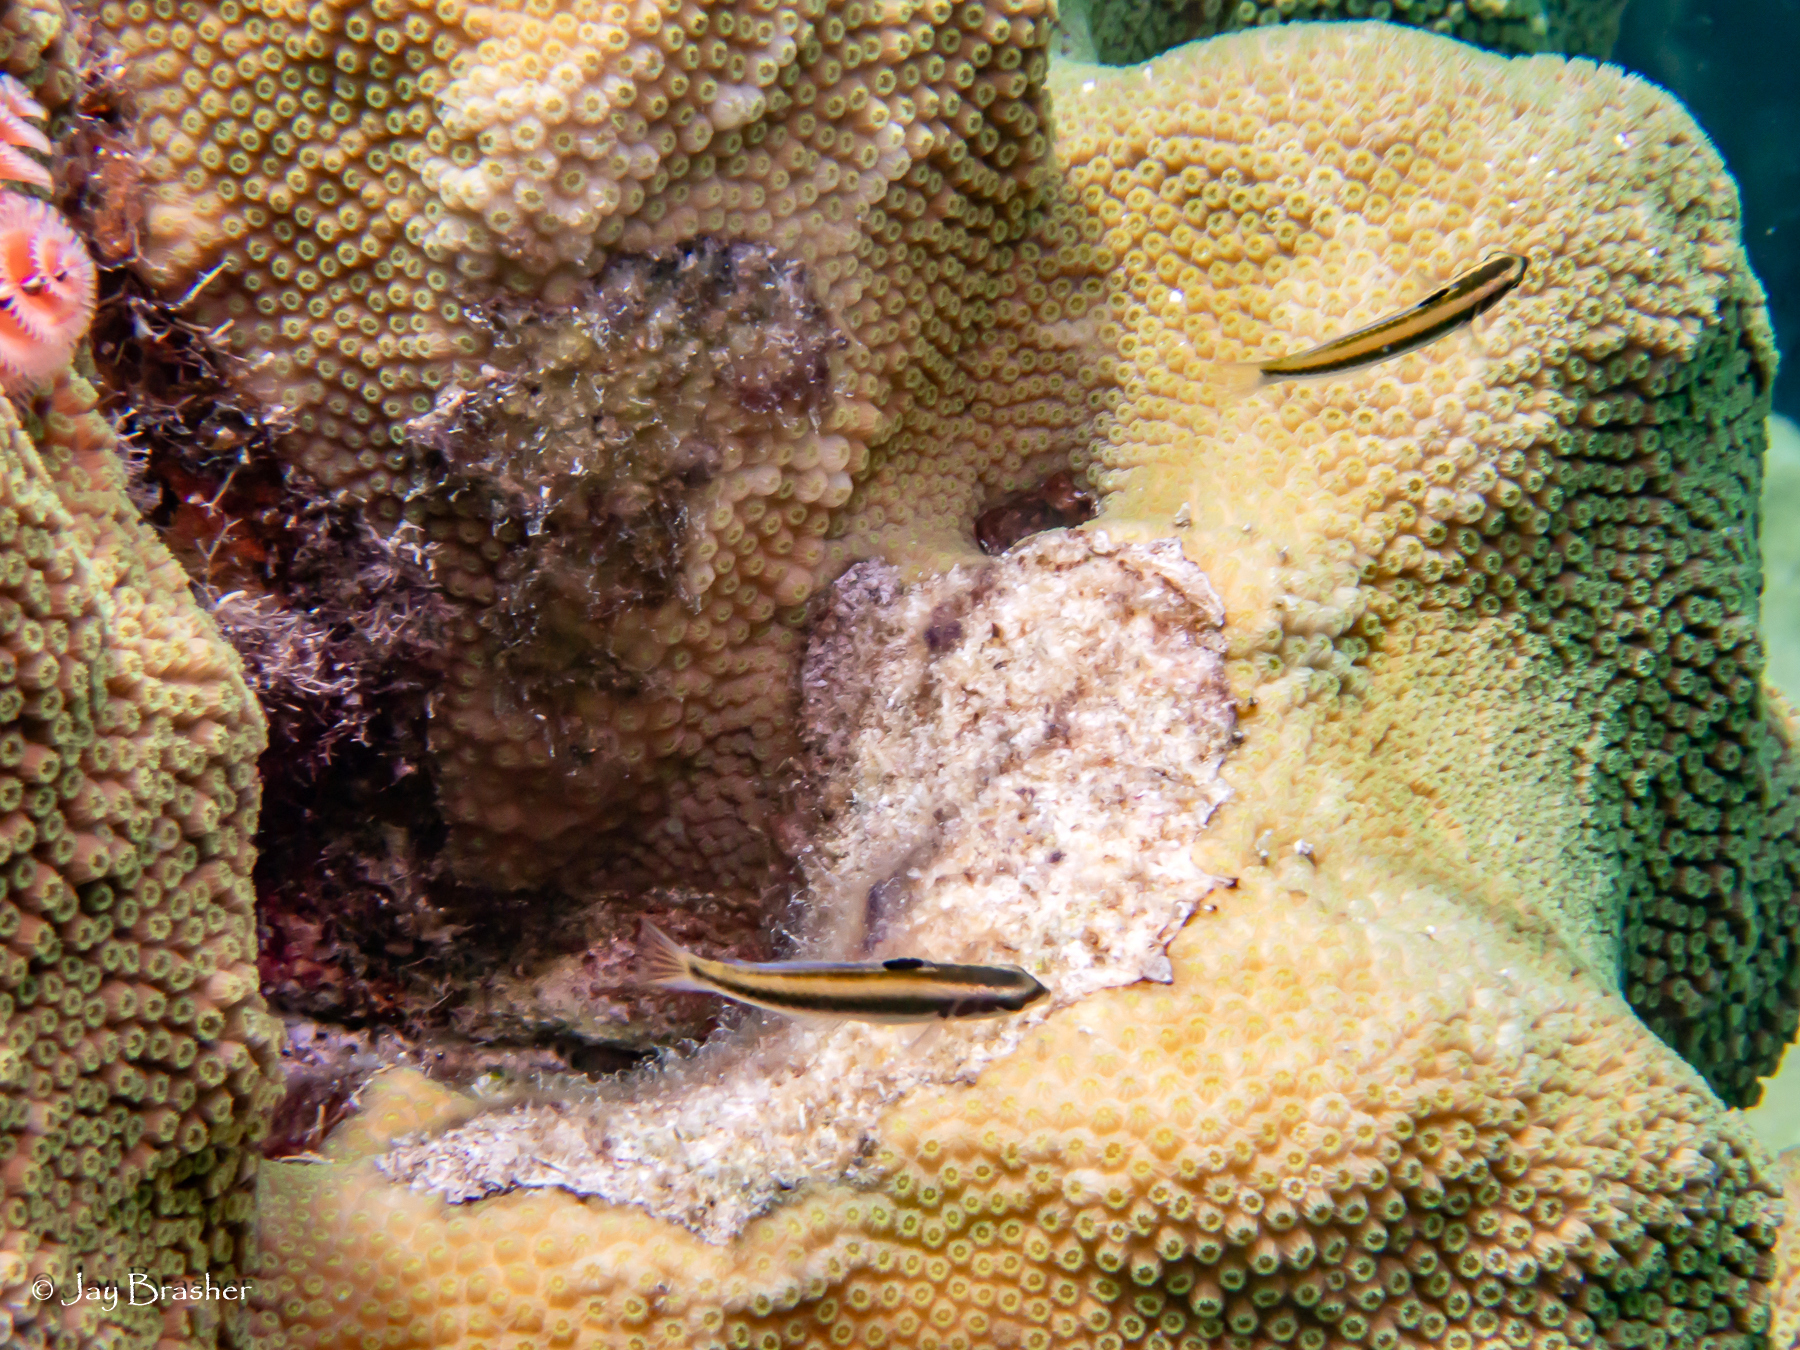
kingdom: Animalia
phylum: Chordata
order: Perciformes
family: Labridae
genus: Thalassoma
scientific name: Thalassoma bifasciatum
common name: Bluehead wrasse
